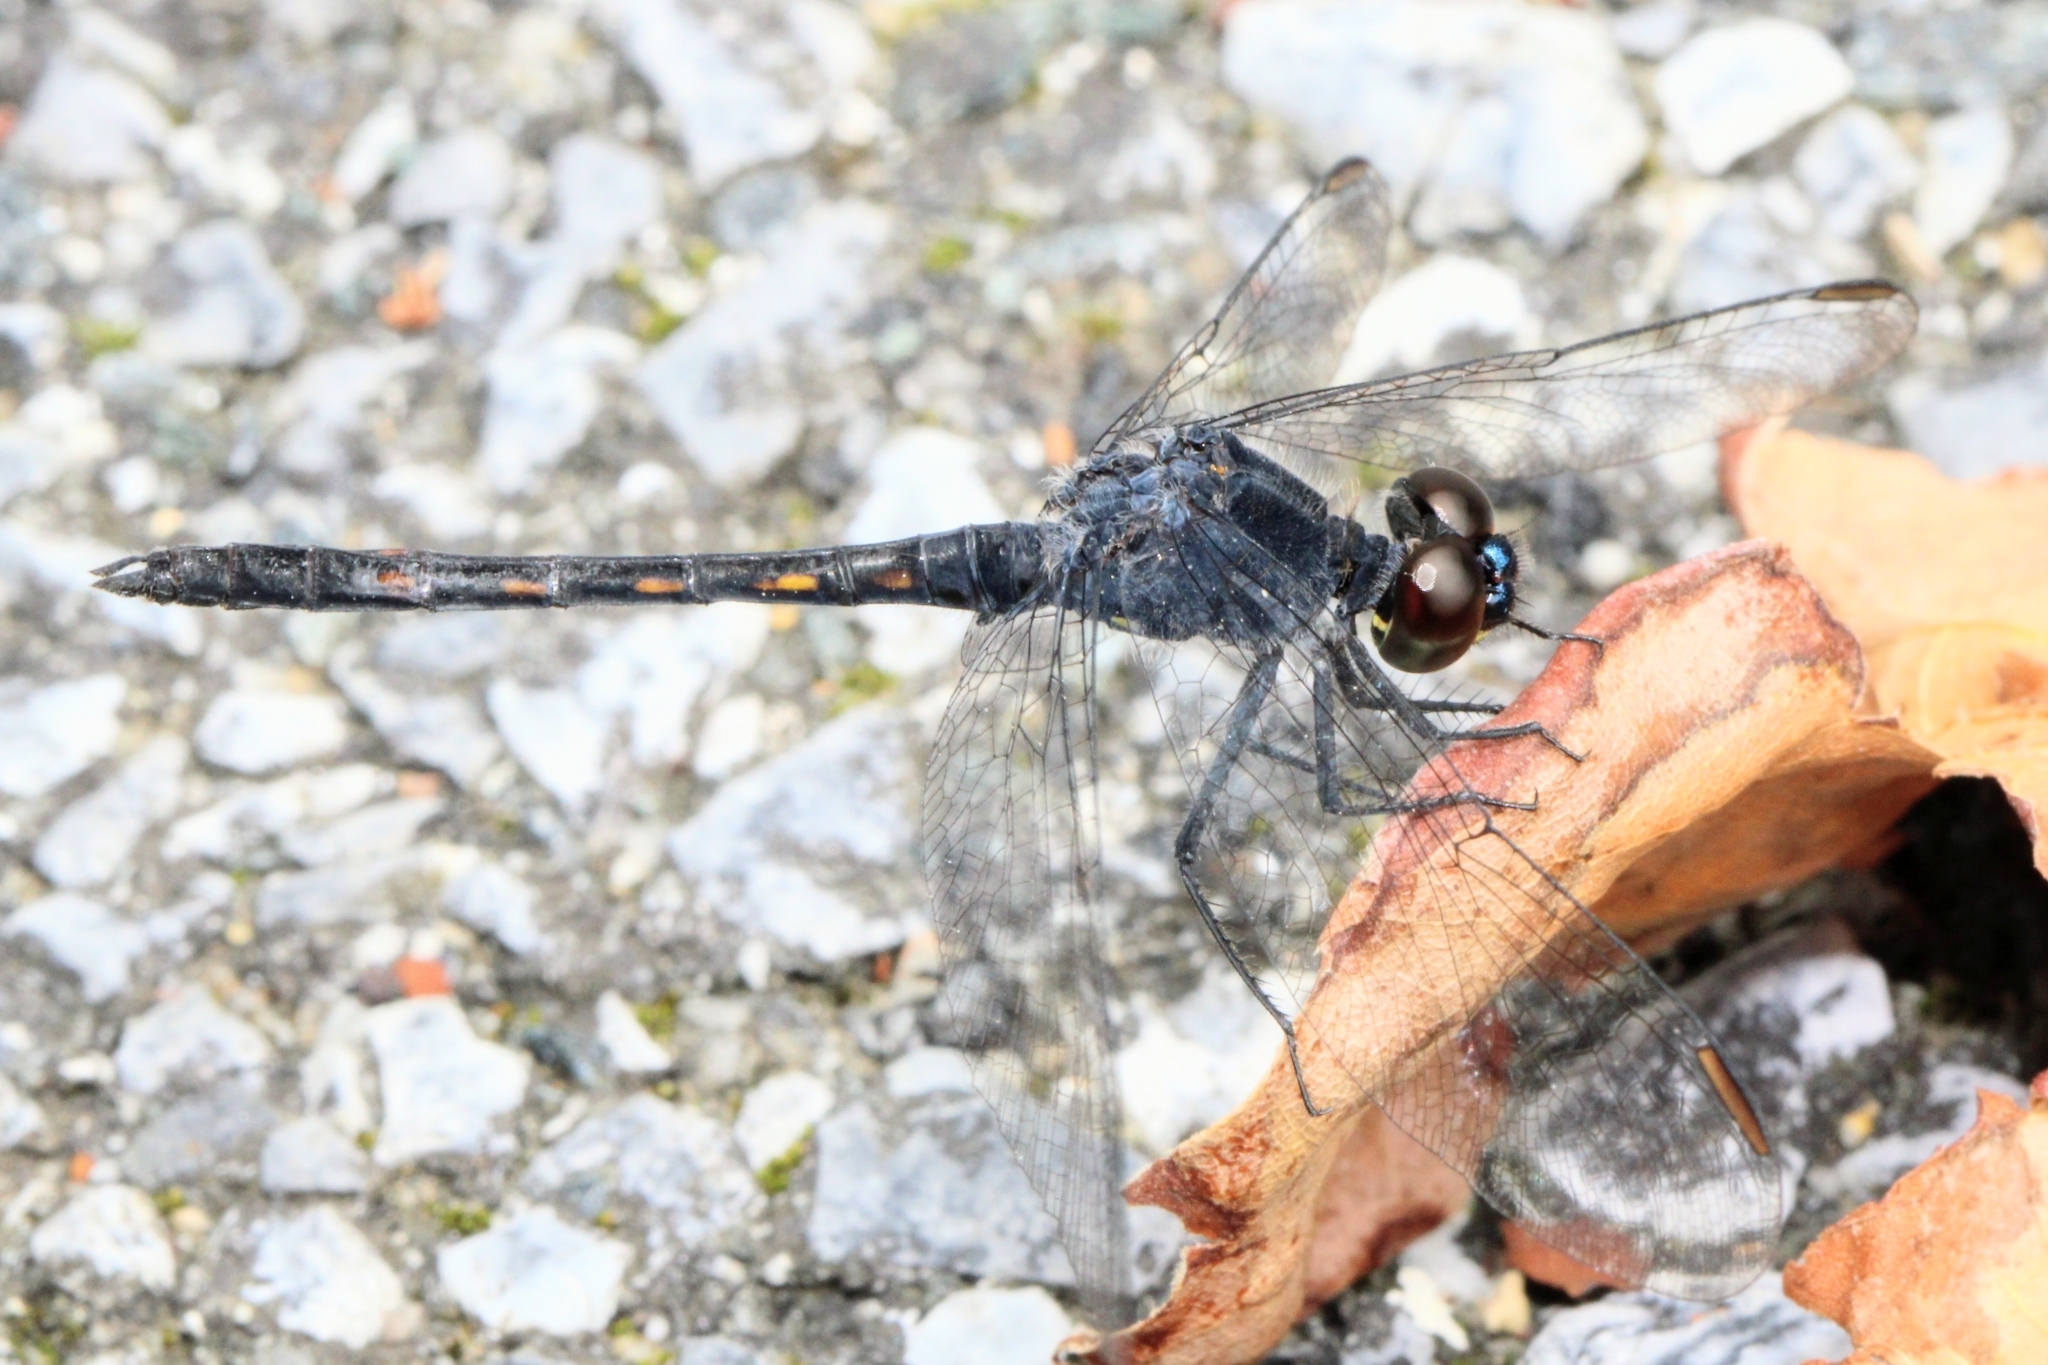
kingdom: Animalia
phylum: Arthropoda
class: Insecta
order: Odonata
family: Libellulidae
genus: Erythrodiplax
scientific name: Erythrodiplax berenice
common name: Seaside dragonlet
